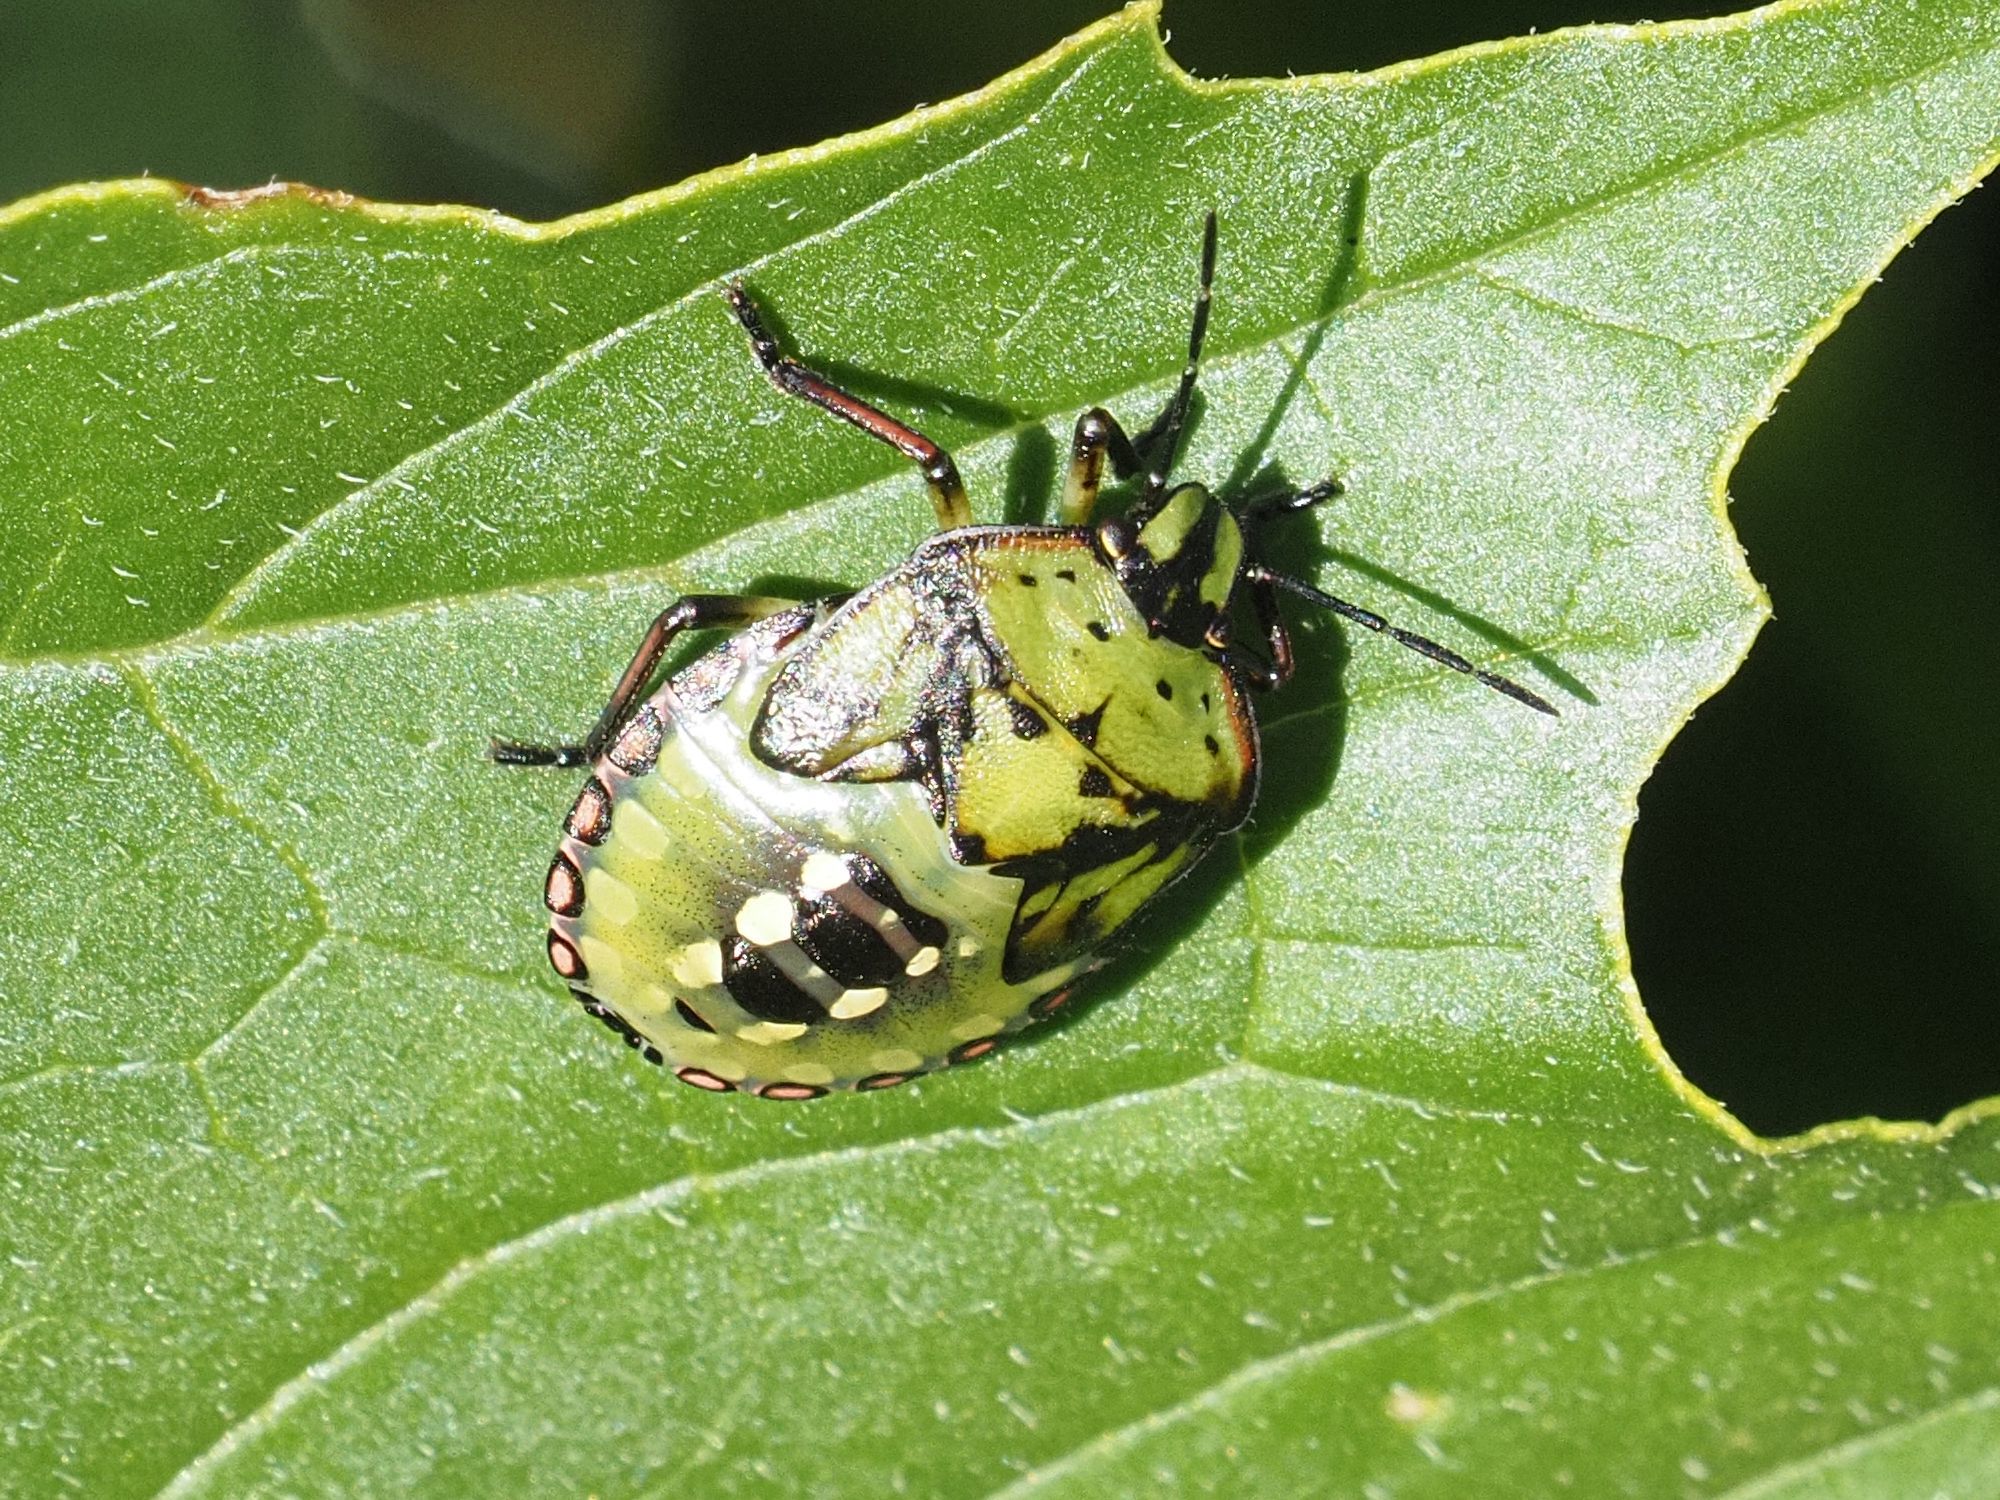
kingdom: Animalia
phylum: Arthropoda
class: Insecta
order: Hemiptera
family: Pentatomidae
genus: Nezara
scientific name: Nezara viridula
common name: Southern green stink bug
